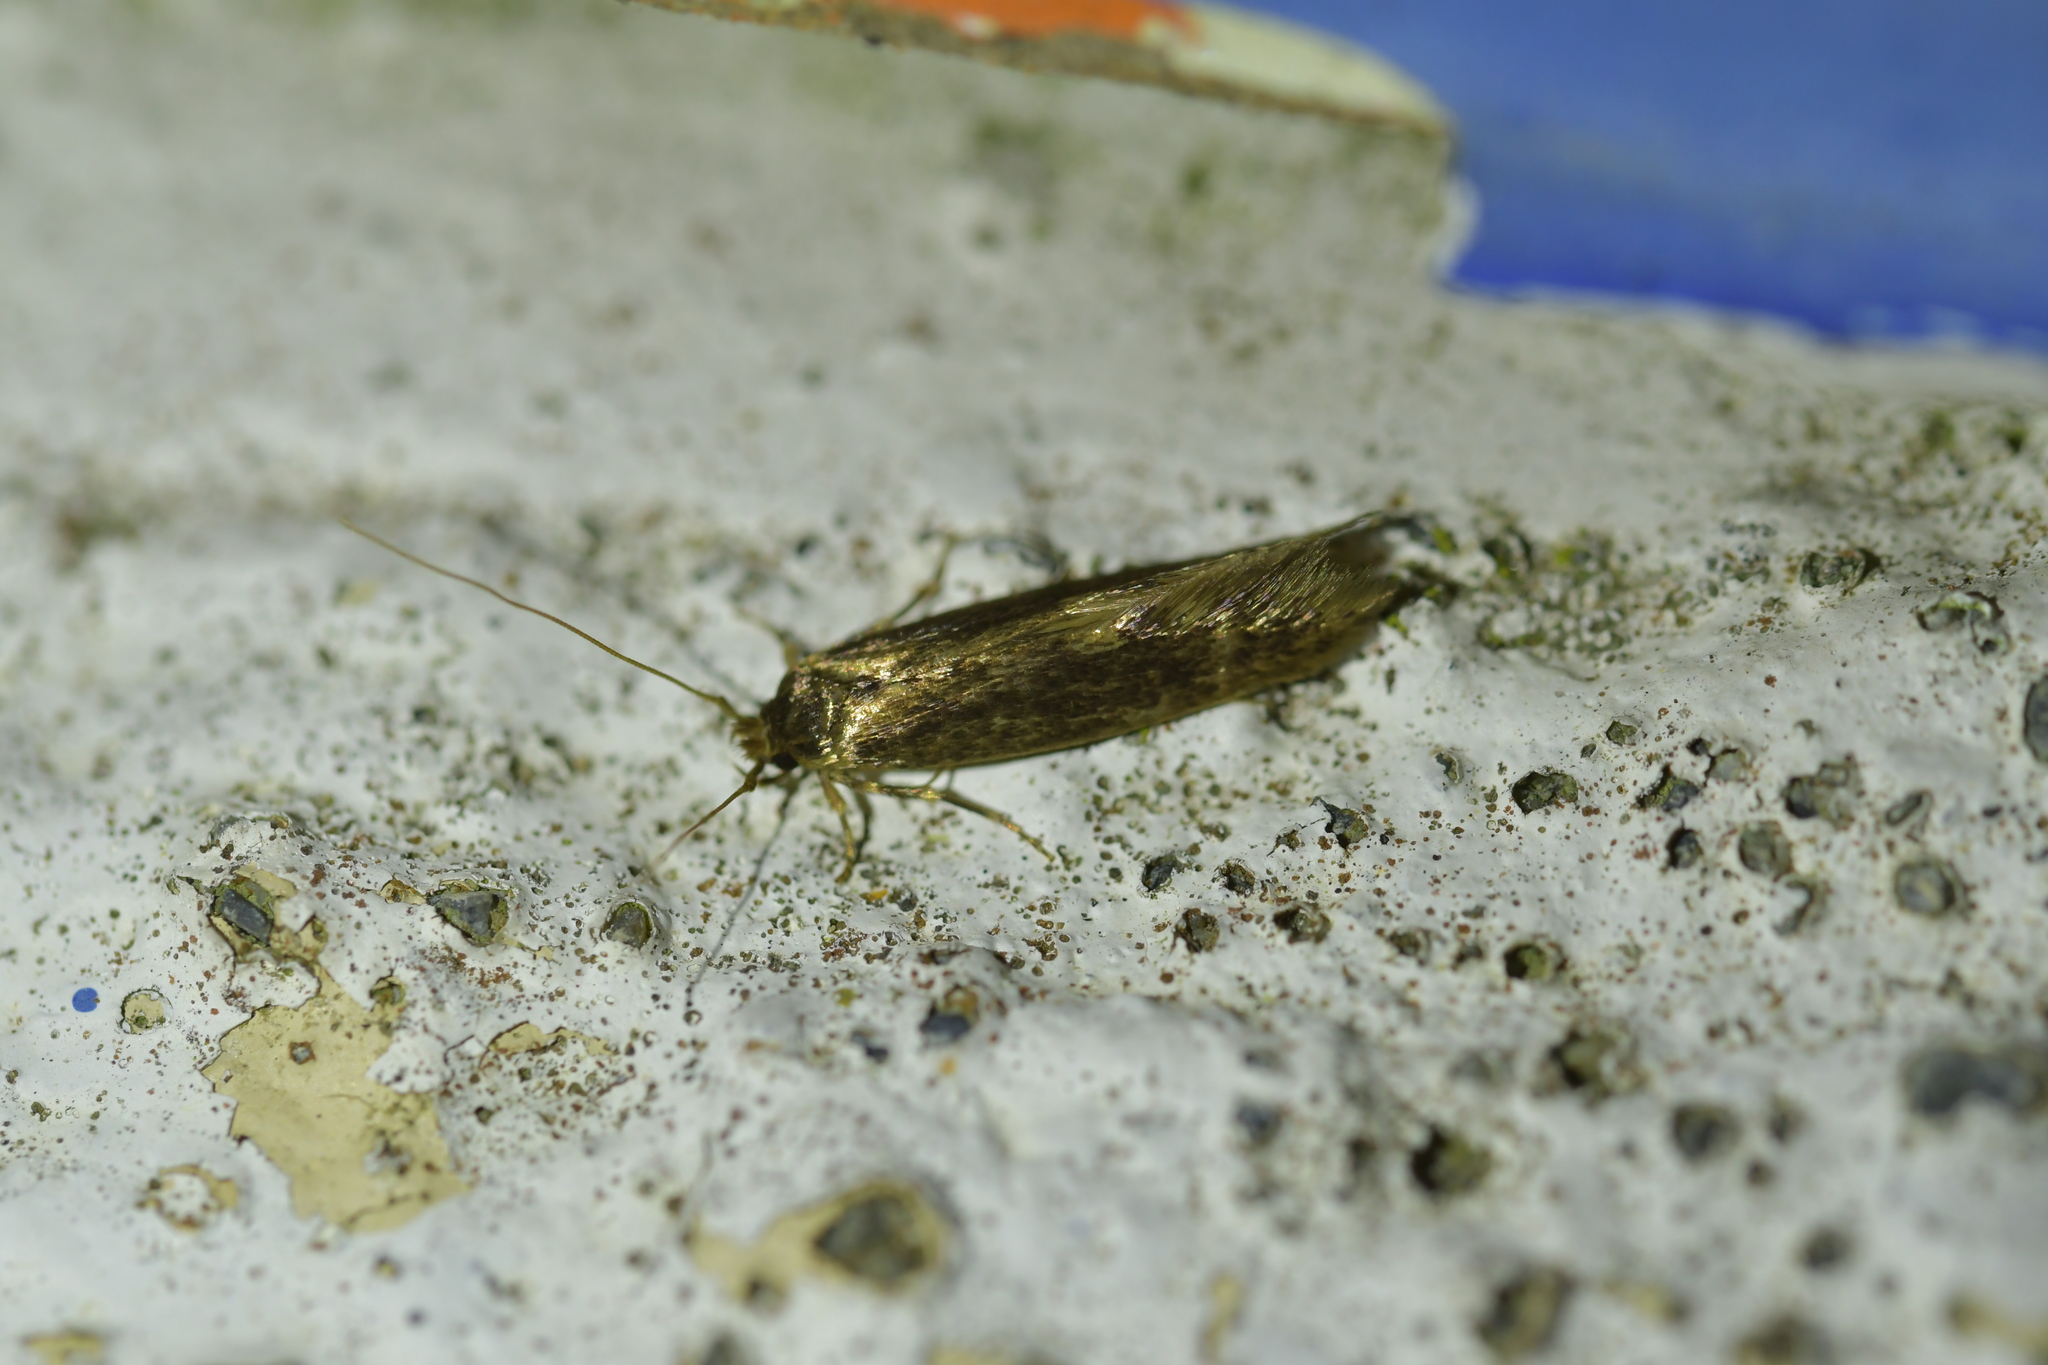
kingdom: Animalia
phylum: Arthropoda
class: Insecta
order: Lepidoptera
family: Tineidae
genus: Opogona
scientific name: Opogona omoscopa
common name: Moth
